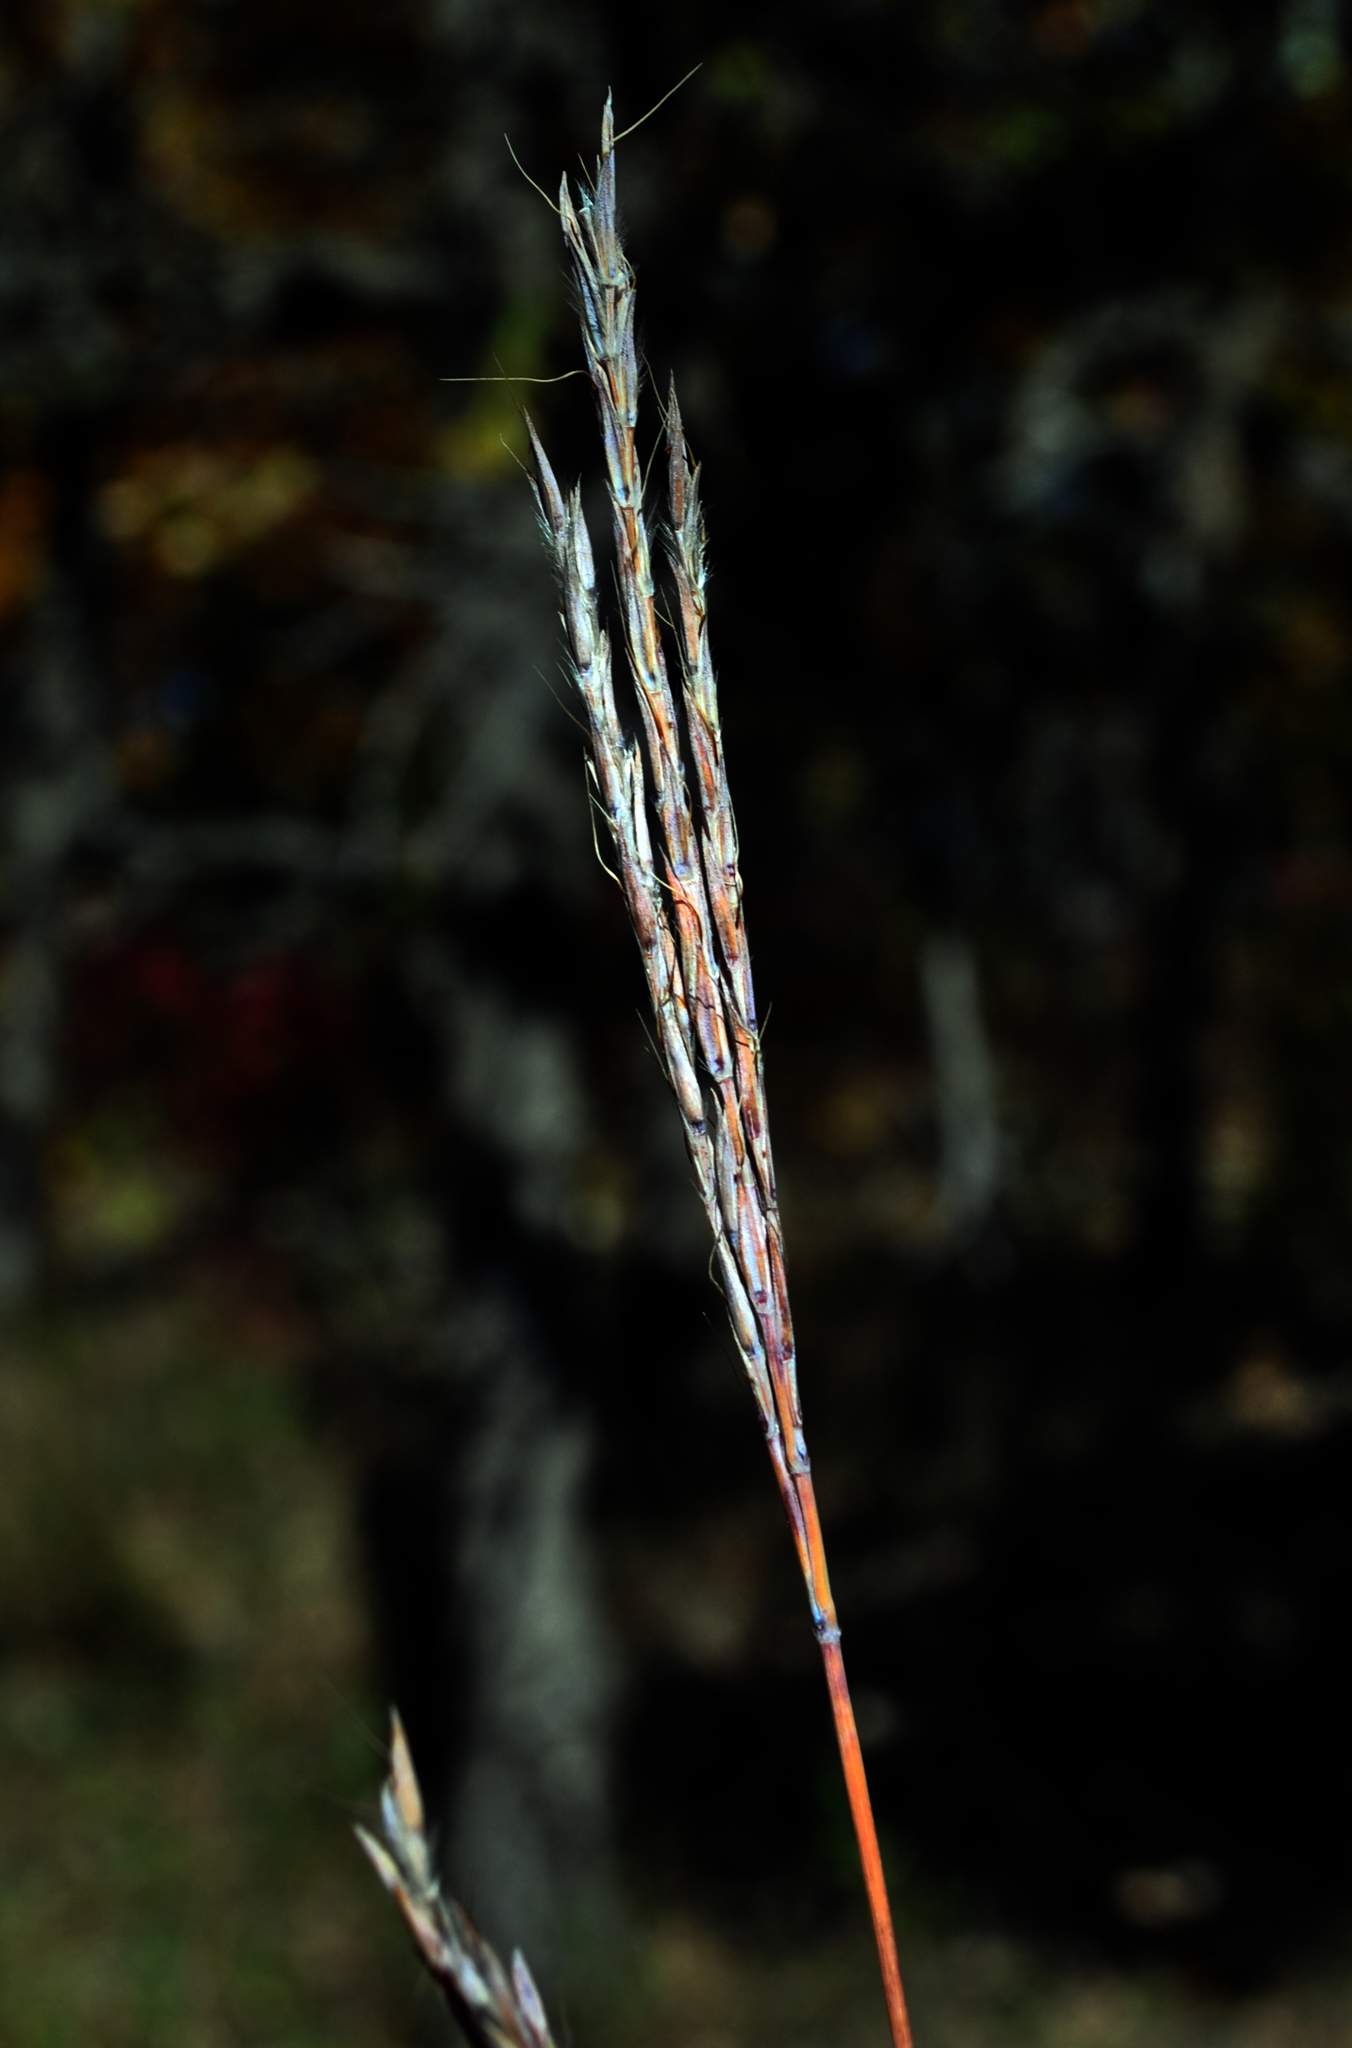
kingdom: Plantae
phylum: Tracheophyta
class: Liliopsida
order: Poales
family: Poaceae
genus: Andropogon
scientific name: Andropogon gerardi
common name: Big bluestem
